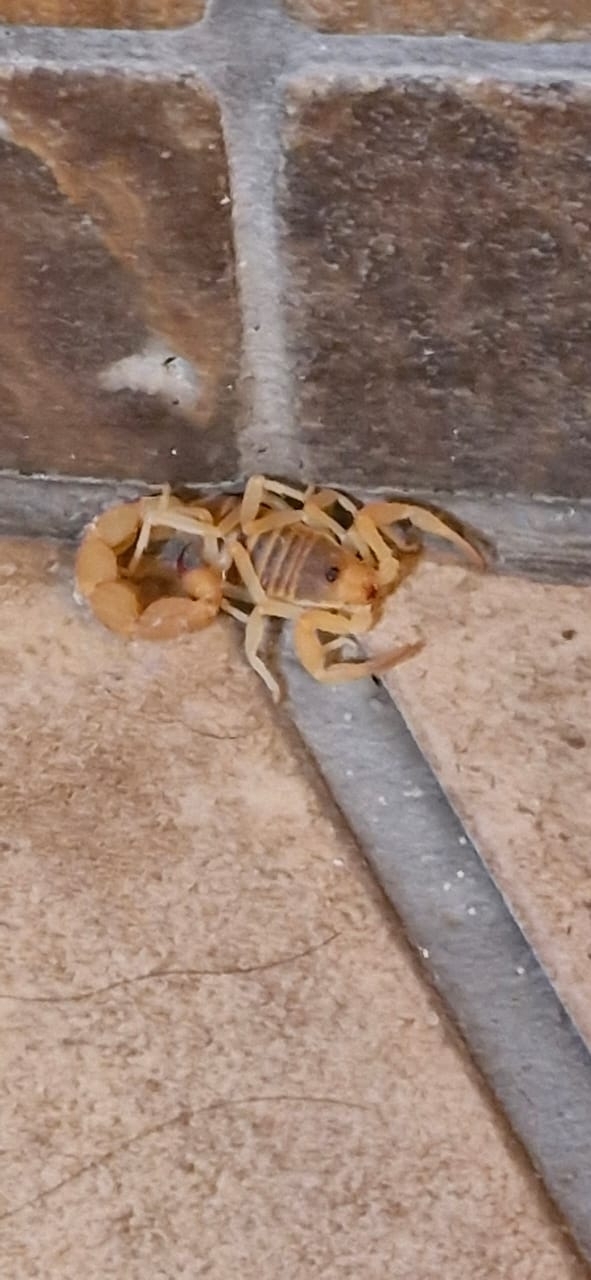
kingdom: Animalia
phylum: Arthropoda
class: Arachnida
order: Scorpiones
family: Buthidae
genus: Parabuthus
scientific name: Parabuthus planicauda
